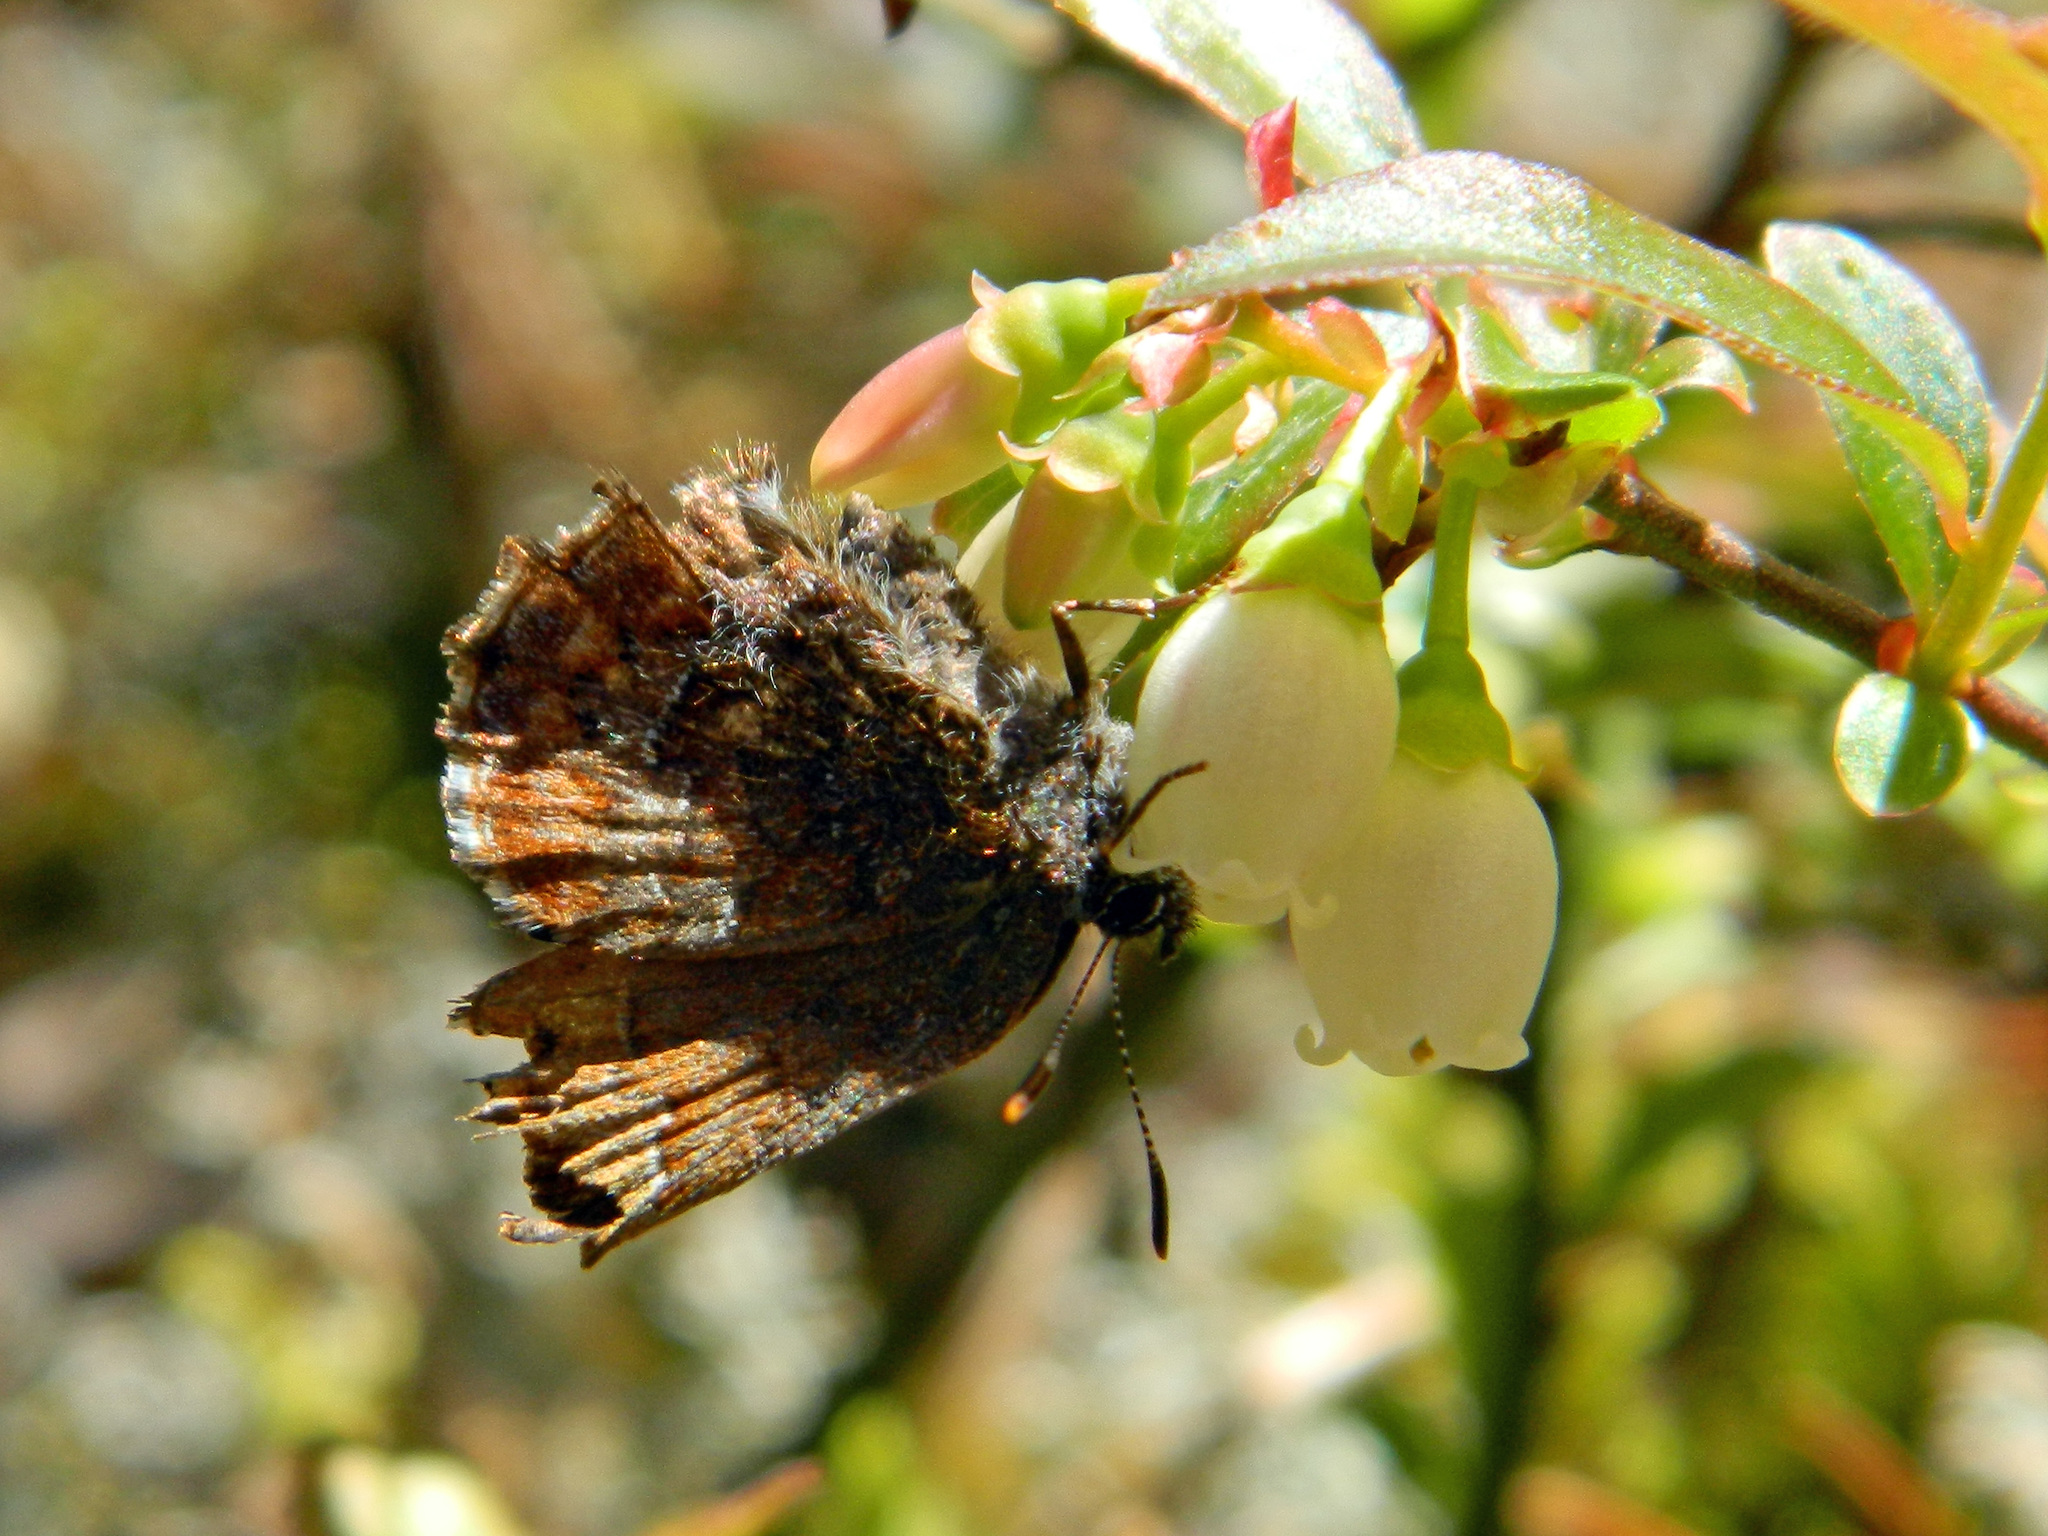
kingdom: Animalia
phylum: Arthropoda
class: Insecta
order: Lepidoptera
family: Lycaenidae
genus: Incisalia
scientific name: Incisalia niphon
